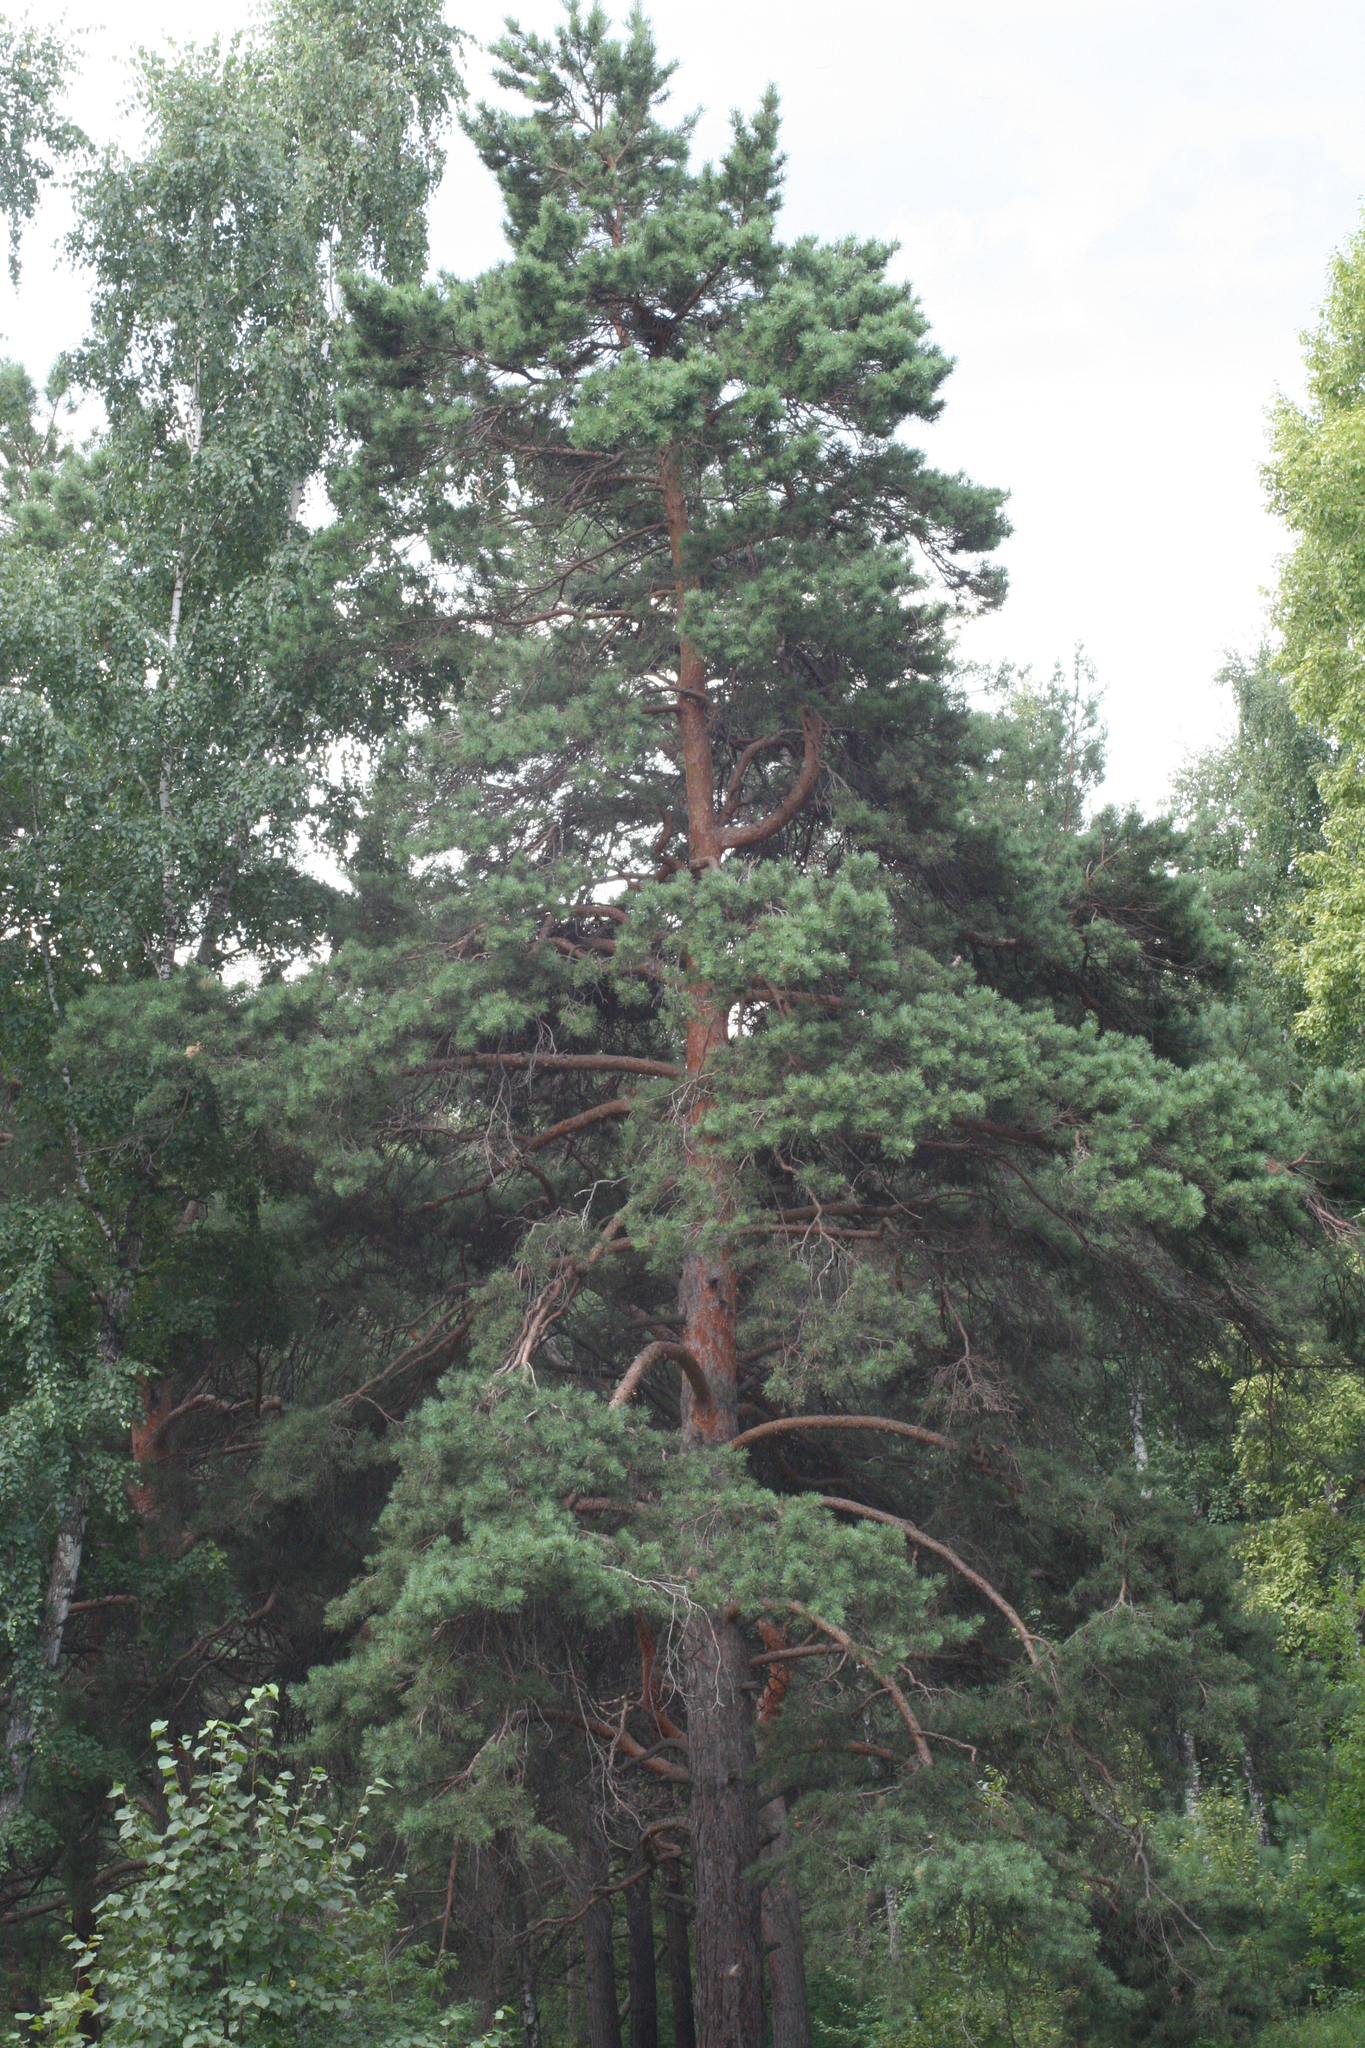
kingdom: Plantae
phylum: Tracheophyta
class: Pinopsida
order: Pinales
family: Pinaceae
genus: Pinus
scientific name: Pinus sylvestris
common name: Scots pine
